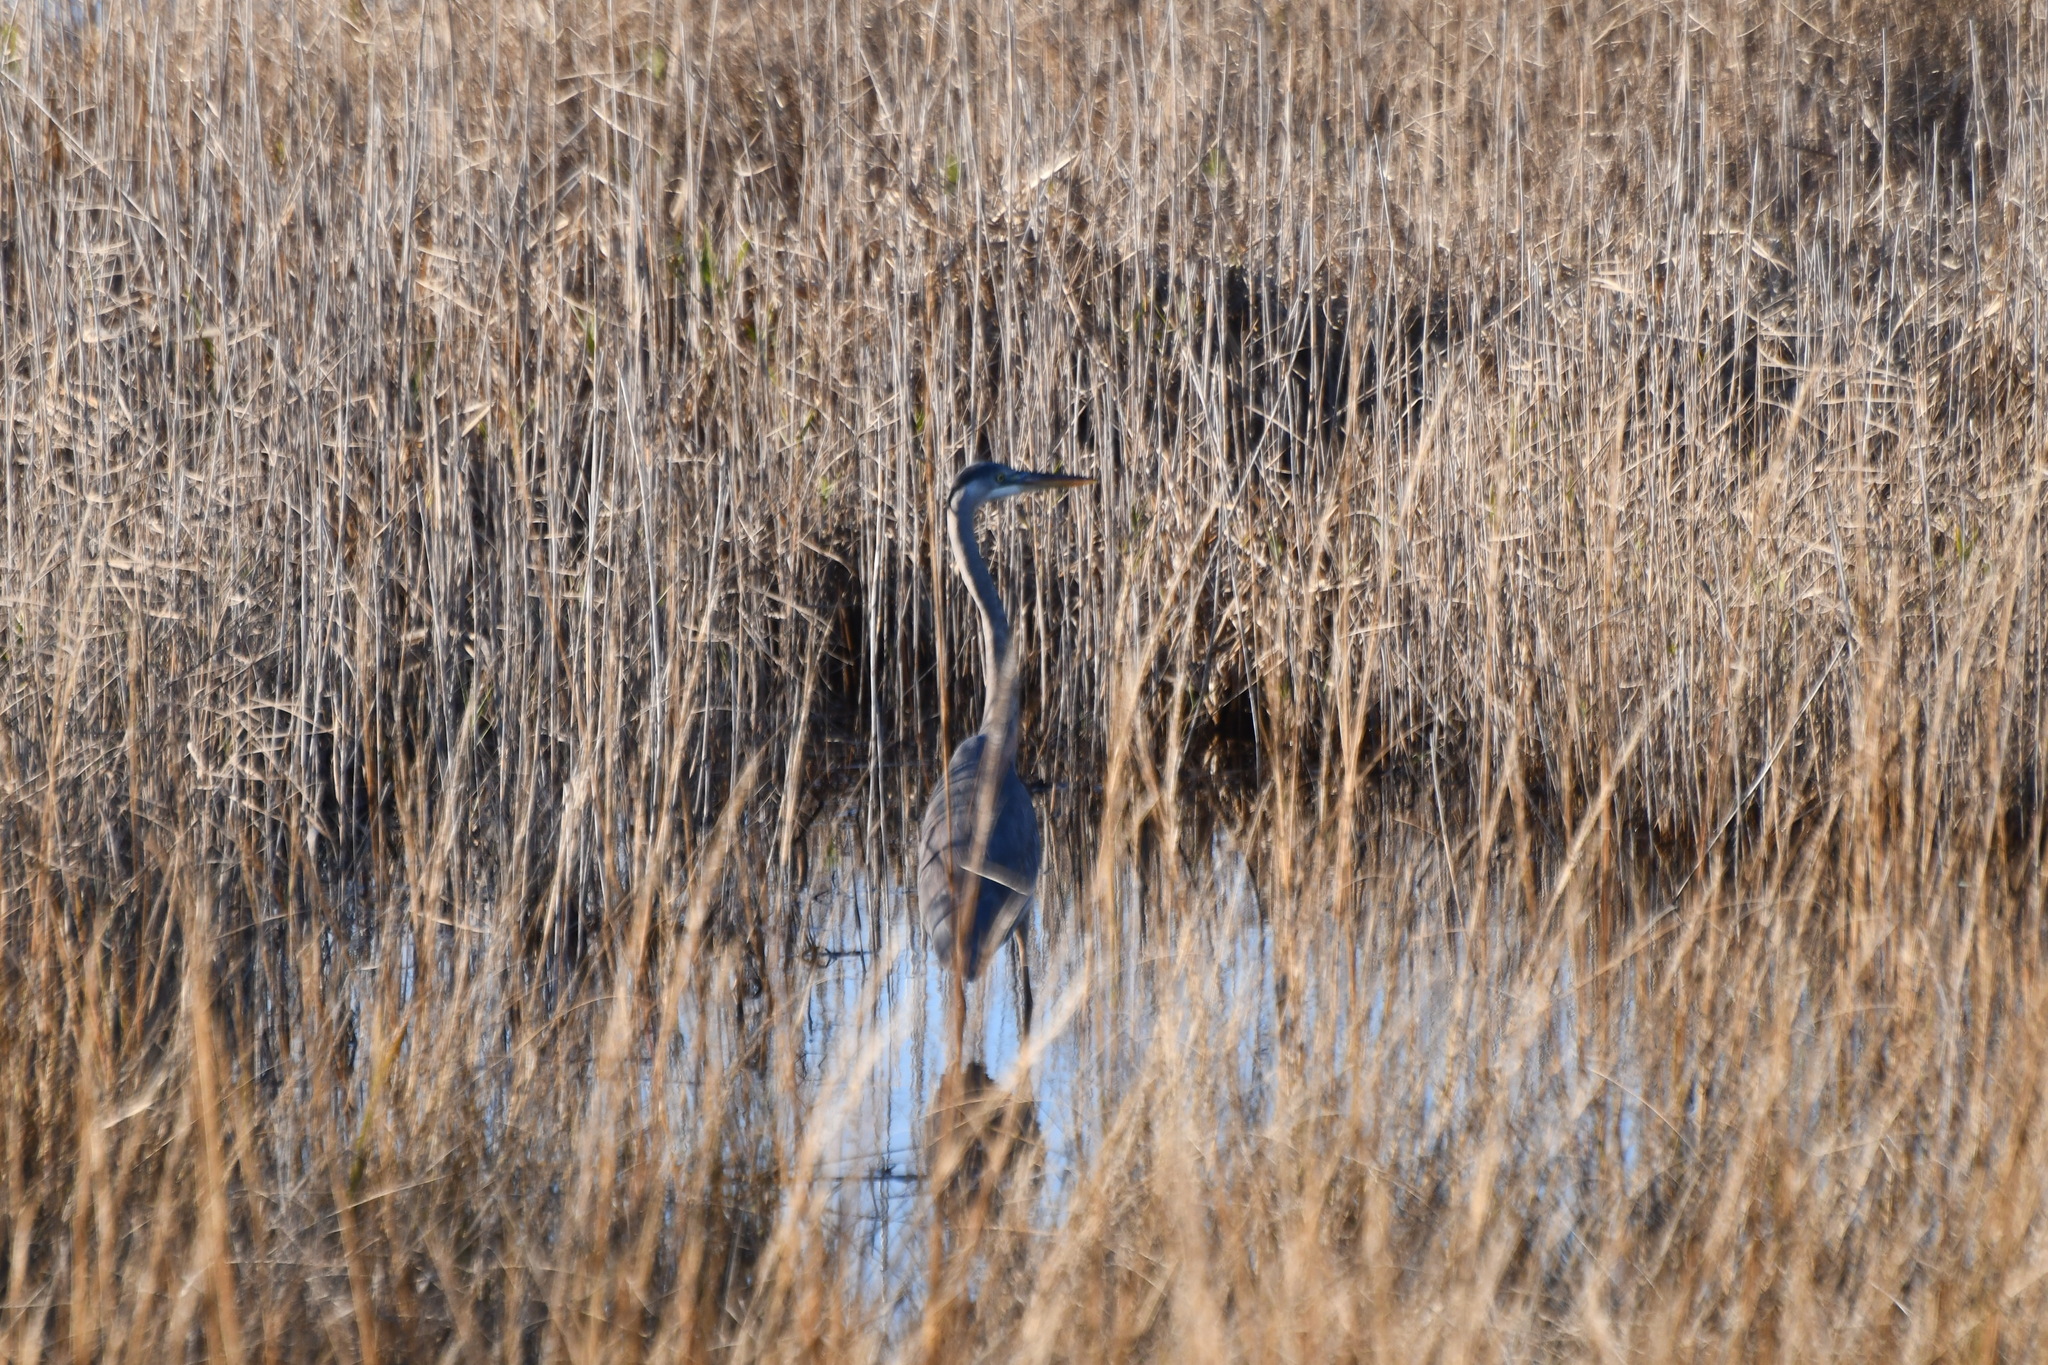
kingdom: Animalia
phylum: Chordata
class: Aves
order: Pelecaniformes
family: Ardeidae
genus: Ardea
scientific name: Ardea herodias
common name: Great blue heron
